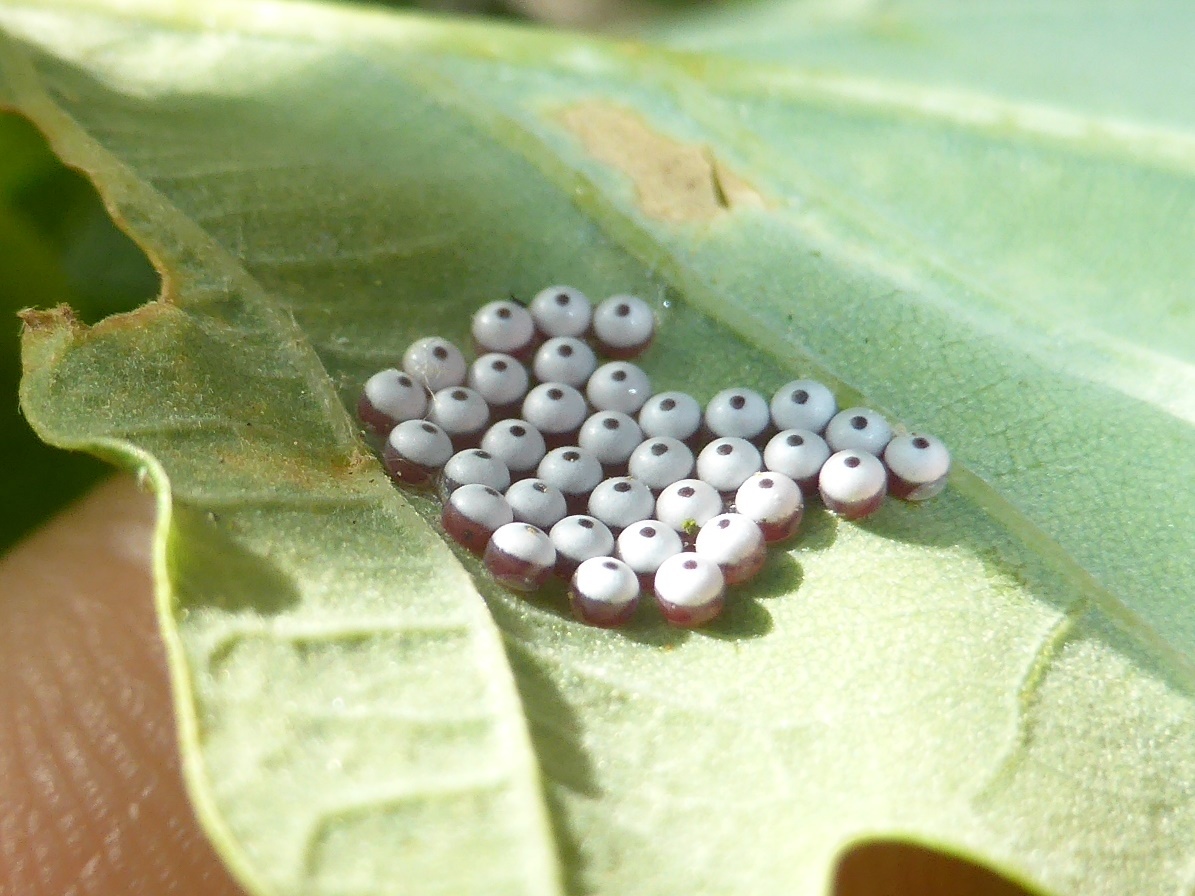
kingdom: Animalia
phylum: Arthropoda
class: Insecta
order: Lepidoptera
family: Notodontidae
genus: Phalera
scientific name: Phalera bucephala
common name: Buff-tip
